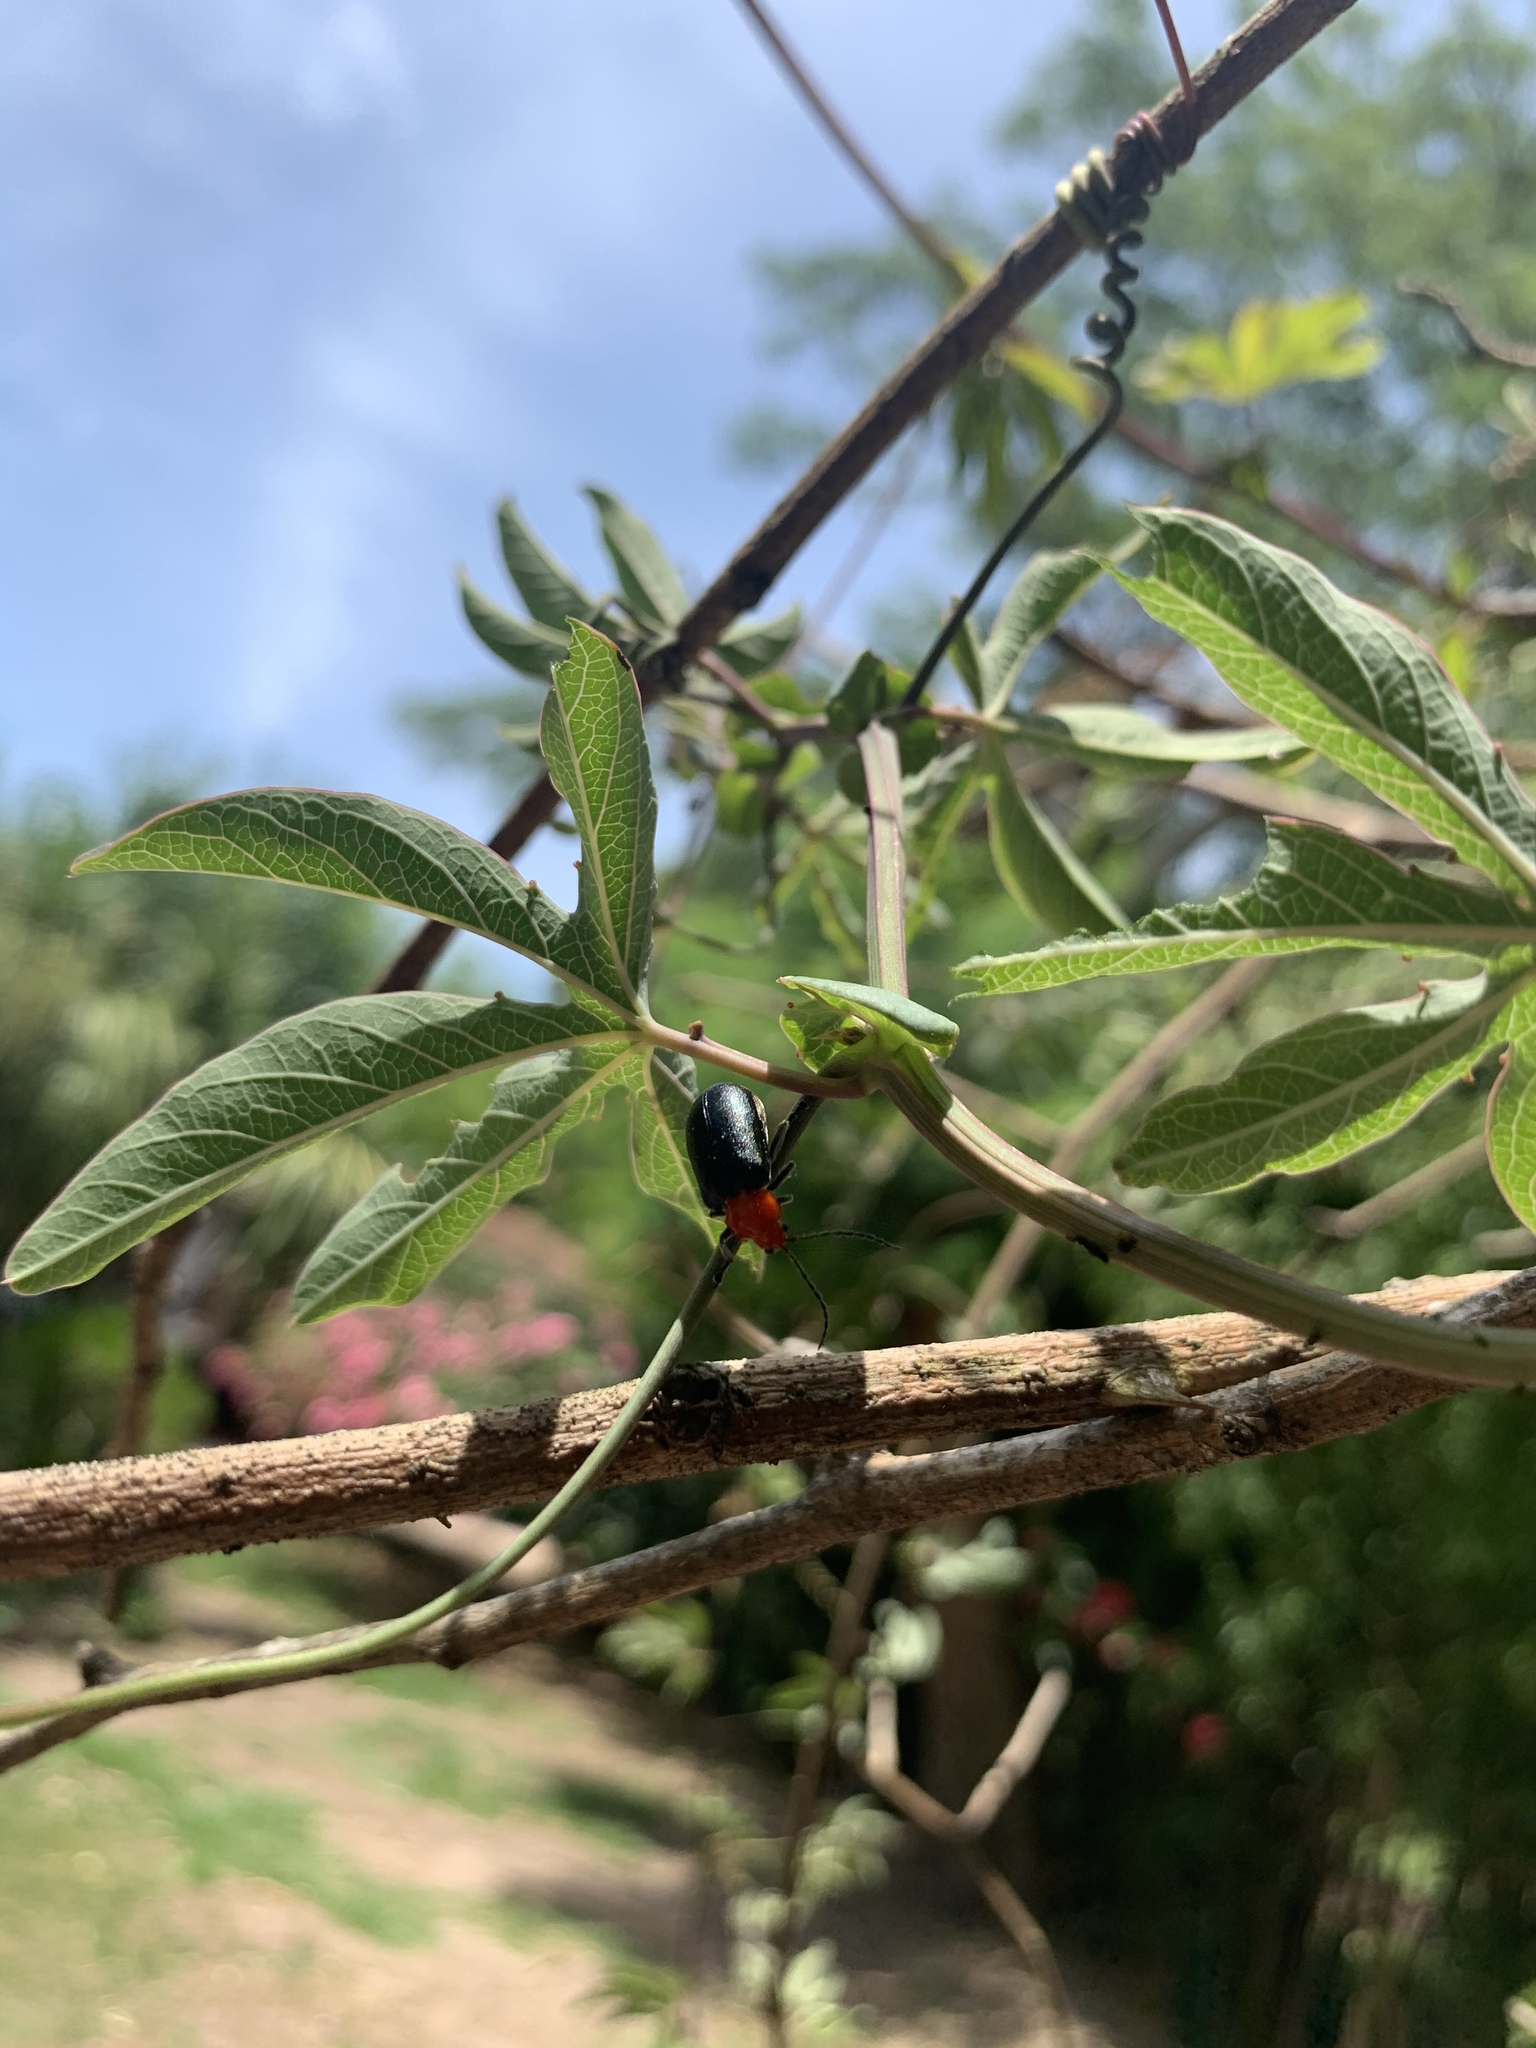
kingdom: Animalia
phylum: Arthropoda
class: Insecta
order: Coleoptera
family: Chrysomelidae
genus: Cacoscelis
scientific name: Cacoscelis
